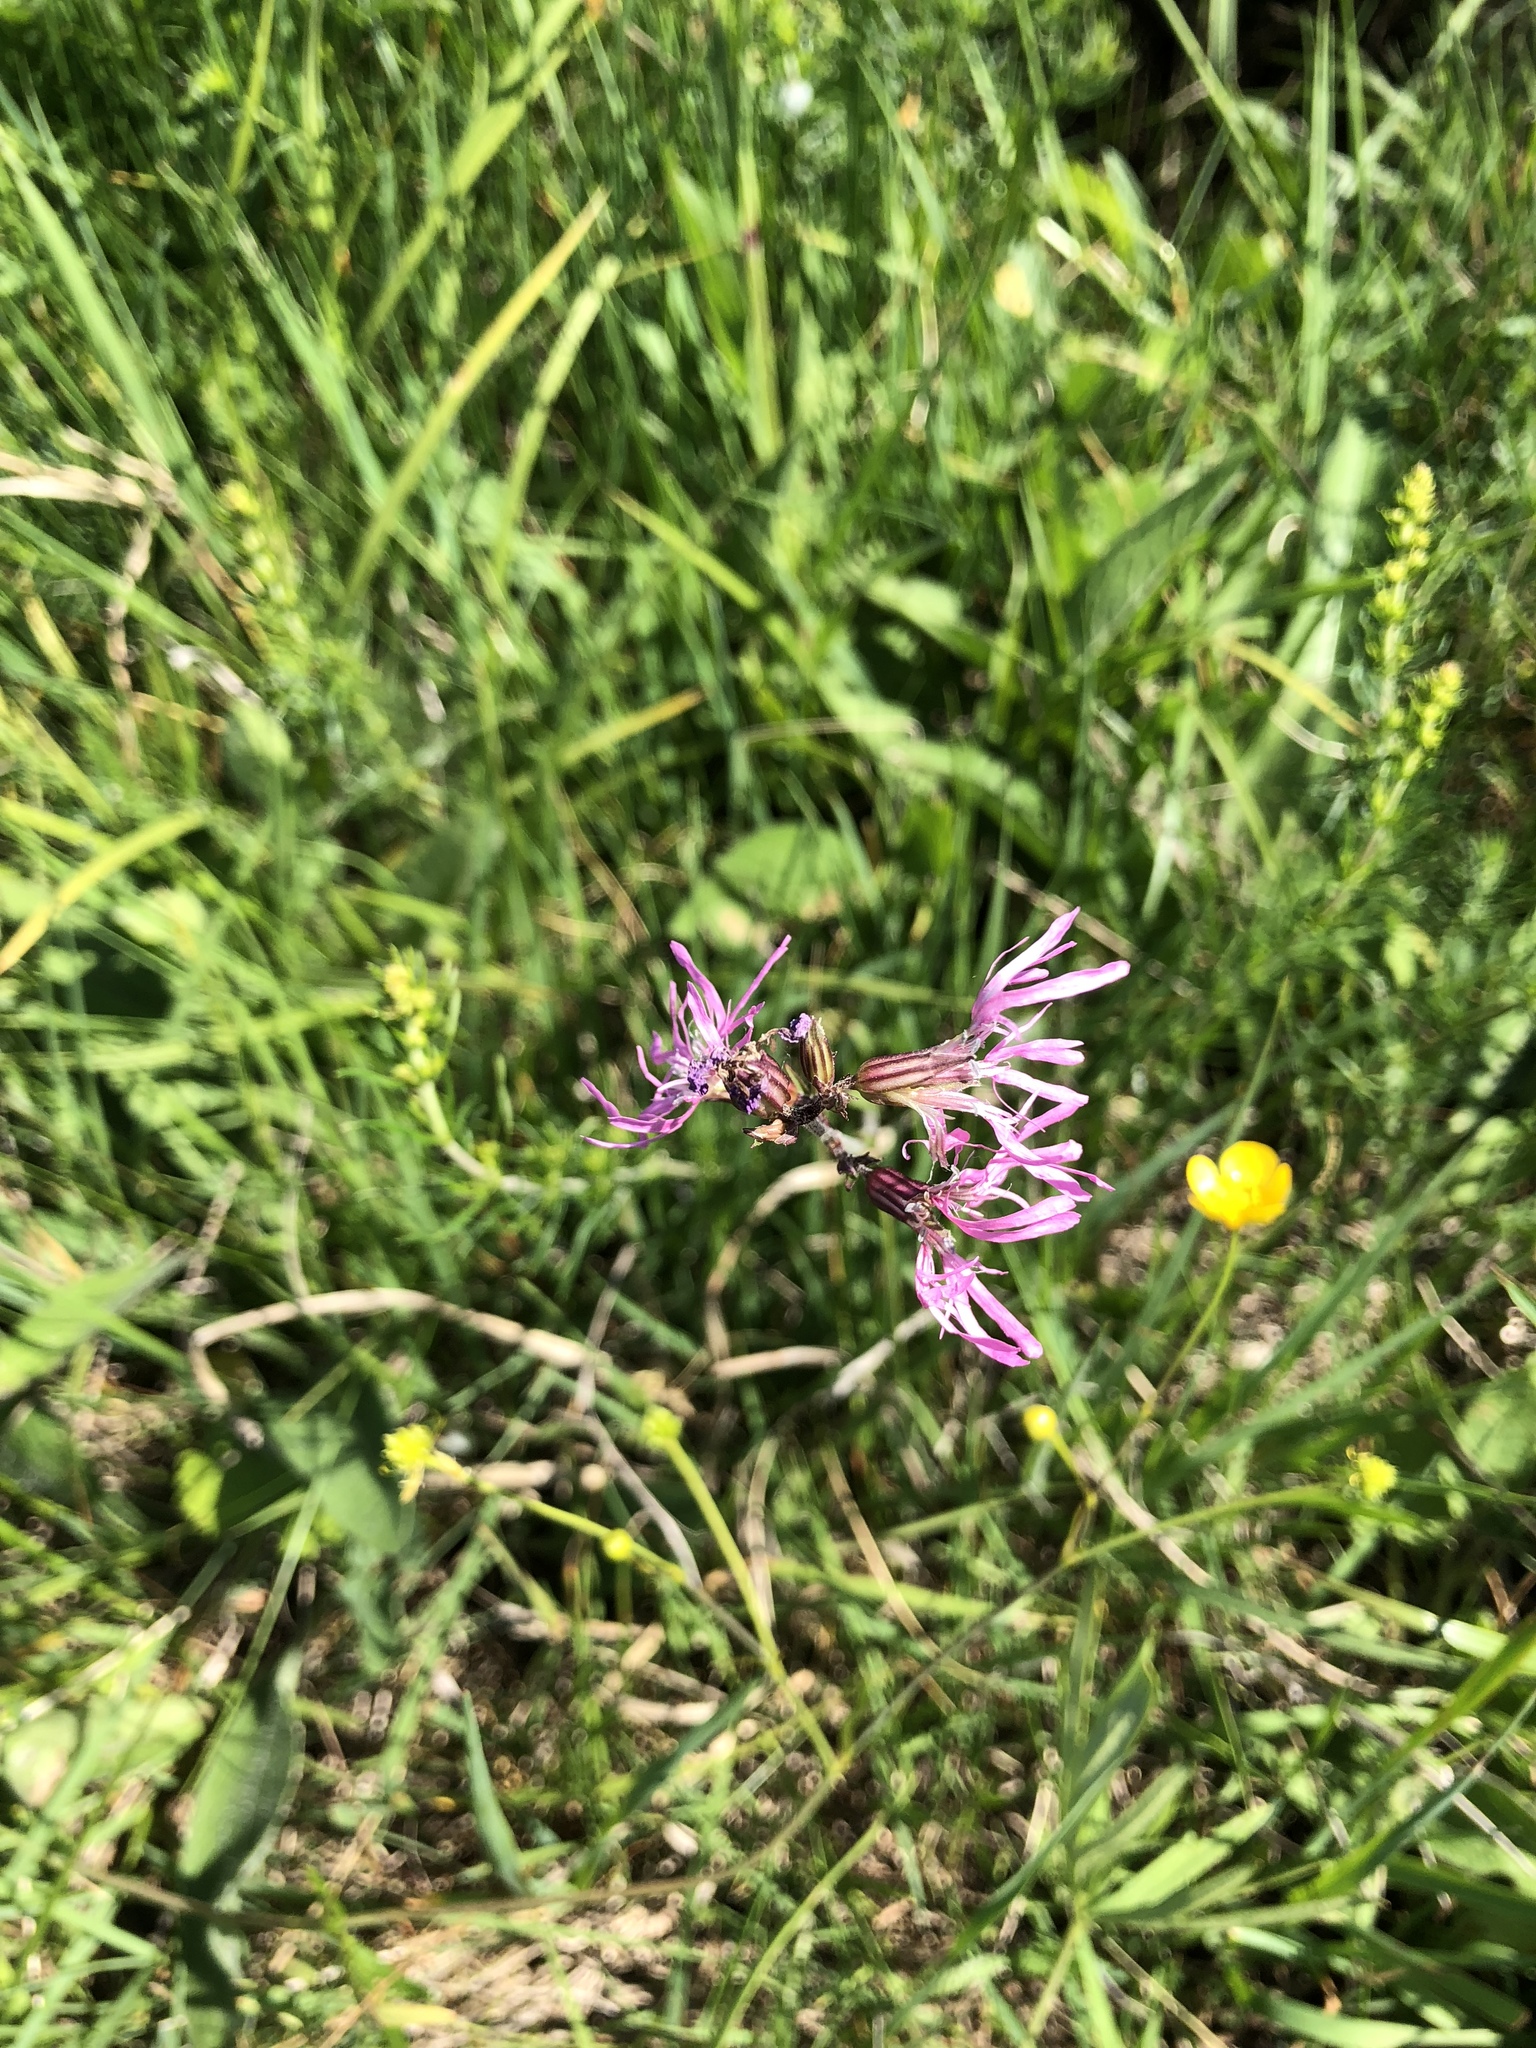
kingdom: Plantae
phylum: Tracheophyta
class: Magnoliopsida
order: Caryophyllales
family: Caryophyllaceae
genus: Silene
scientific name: Silene flos-cuculi
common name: Ragged-robin
